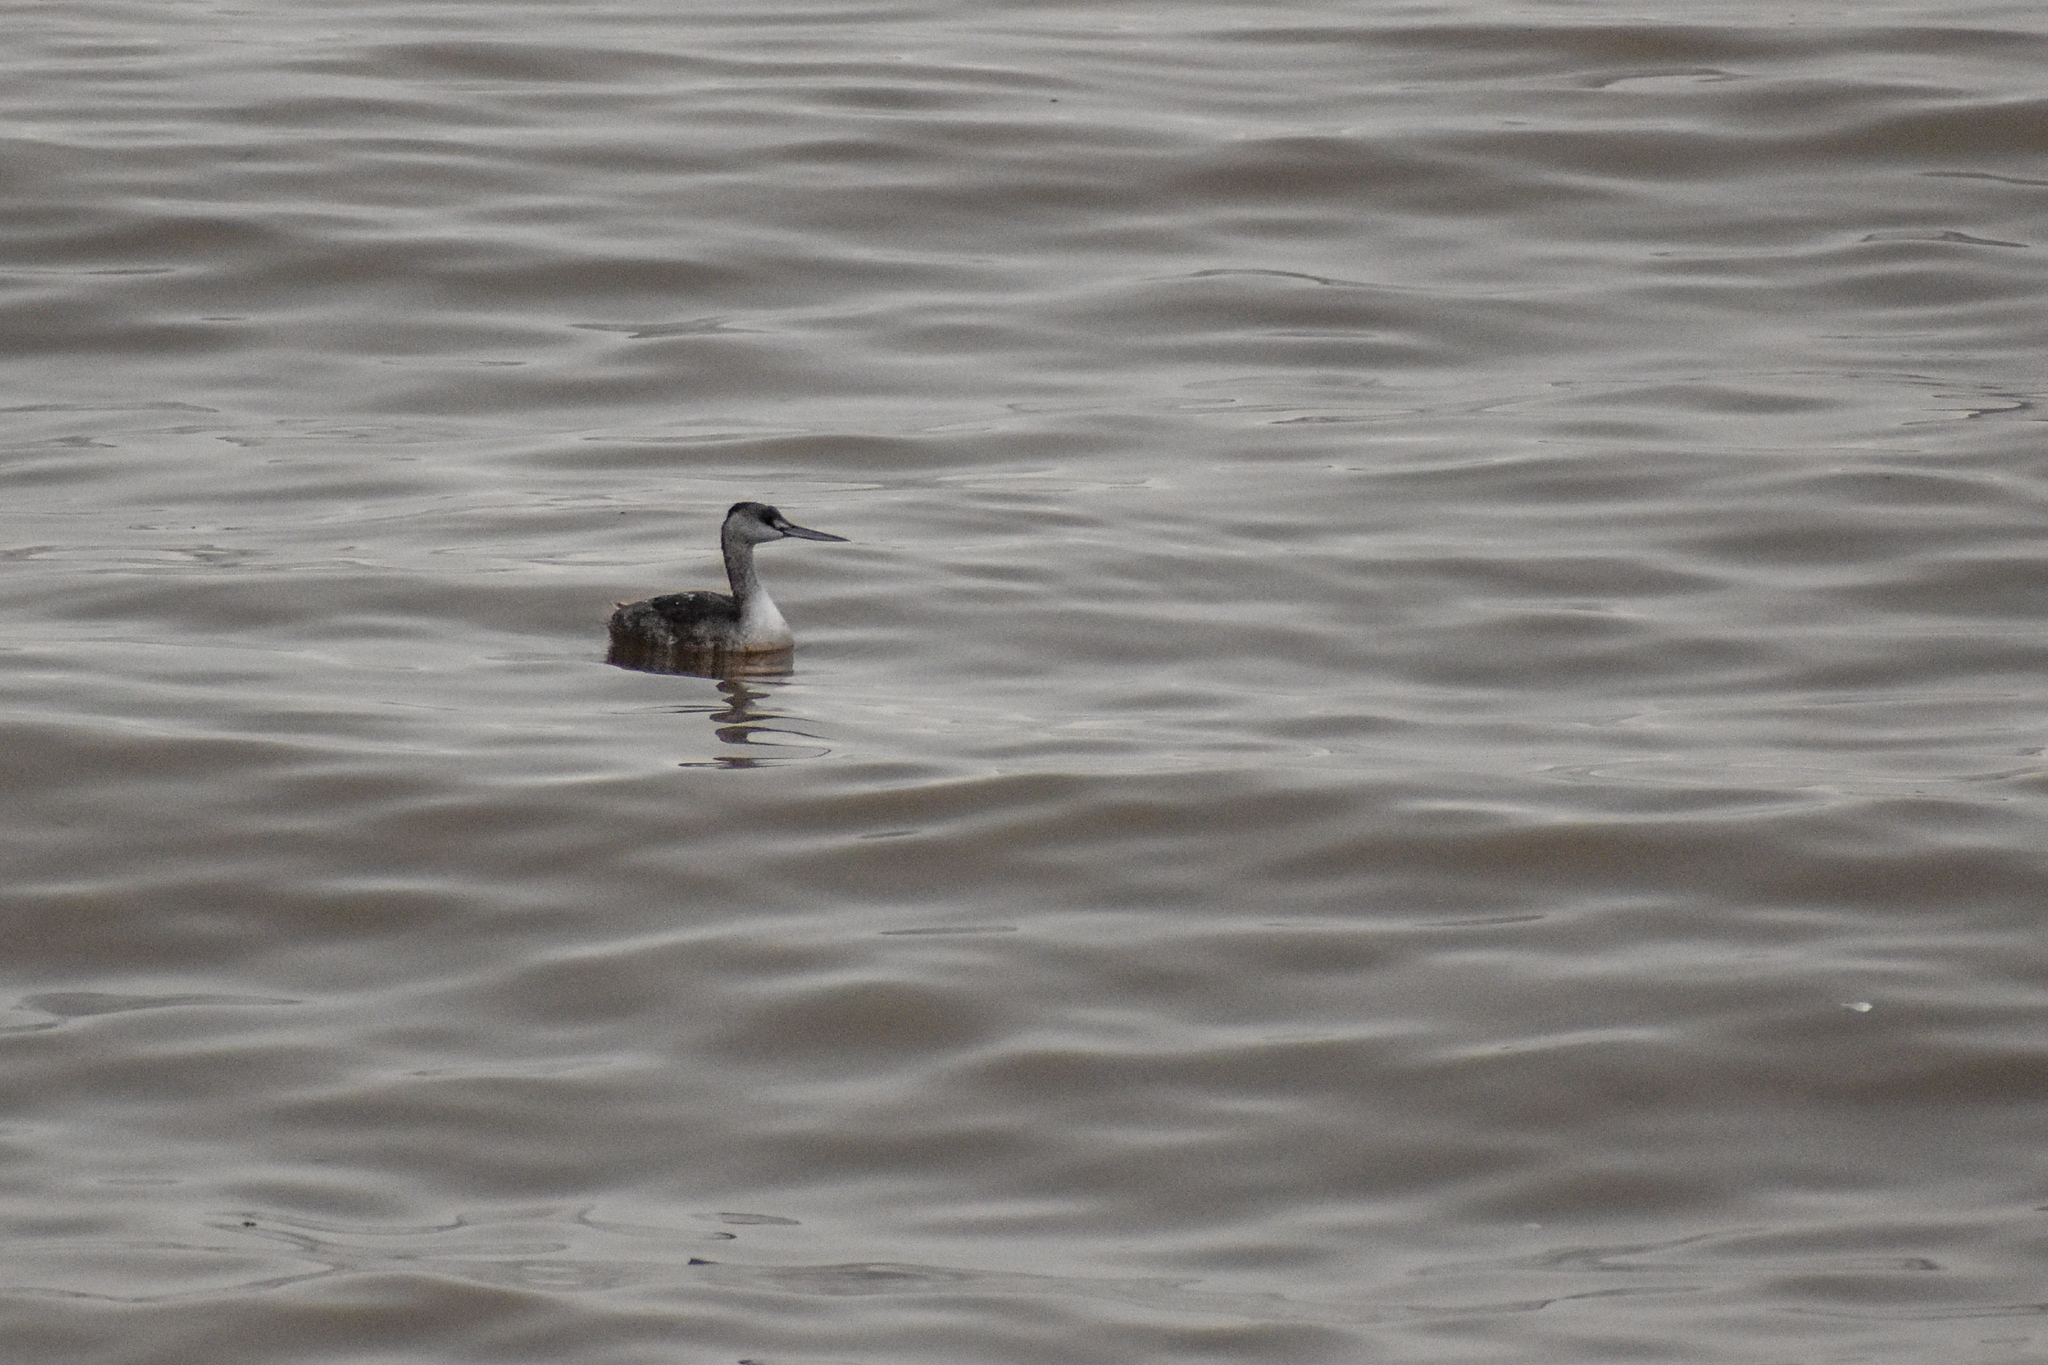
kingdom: Animalia
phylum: Chordata
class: Aves
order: Podicipediformes
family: Podicipedidae
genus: Podiceps
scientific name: Podiceps major
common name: Great grebe
